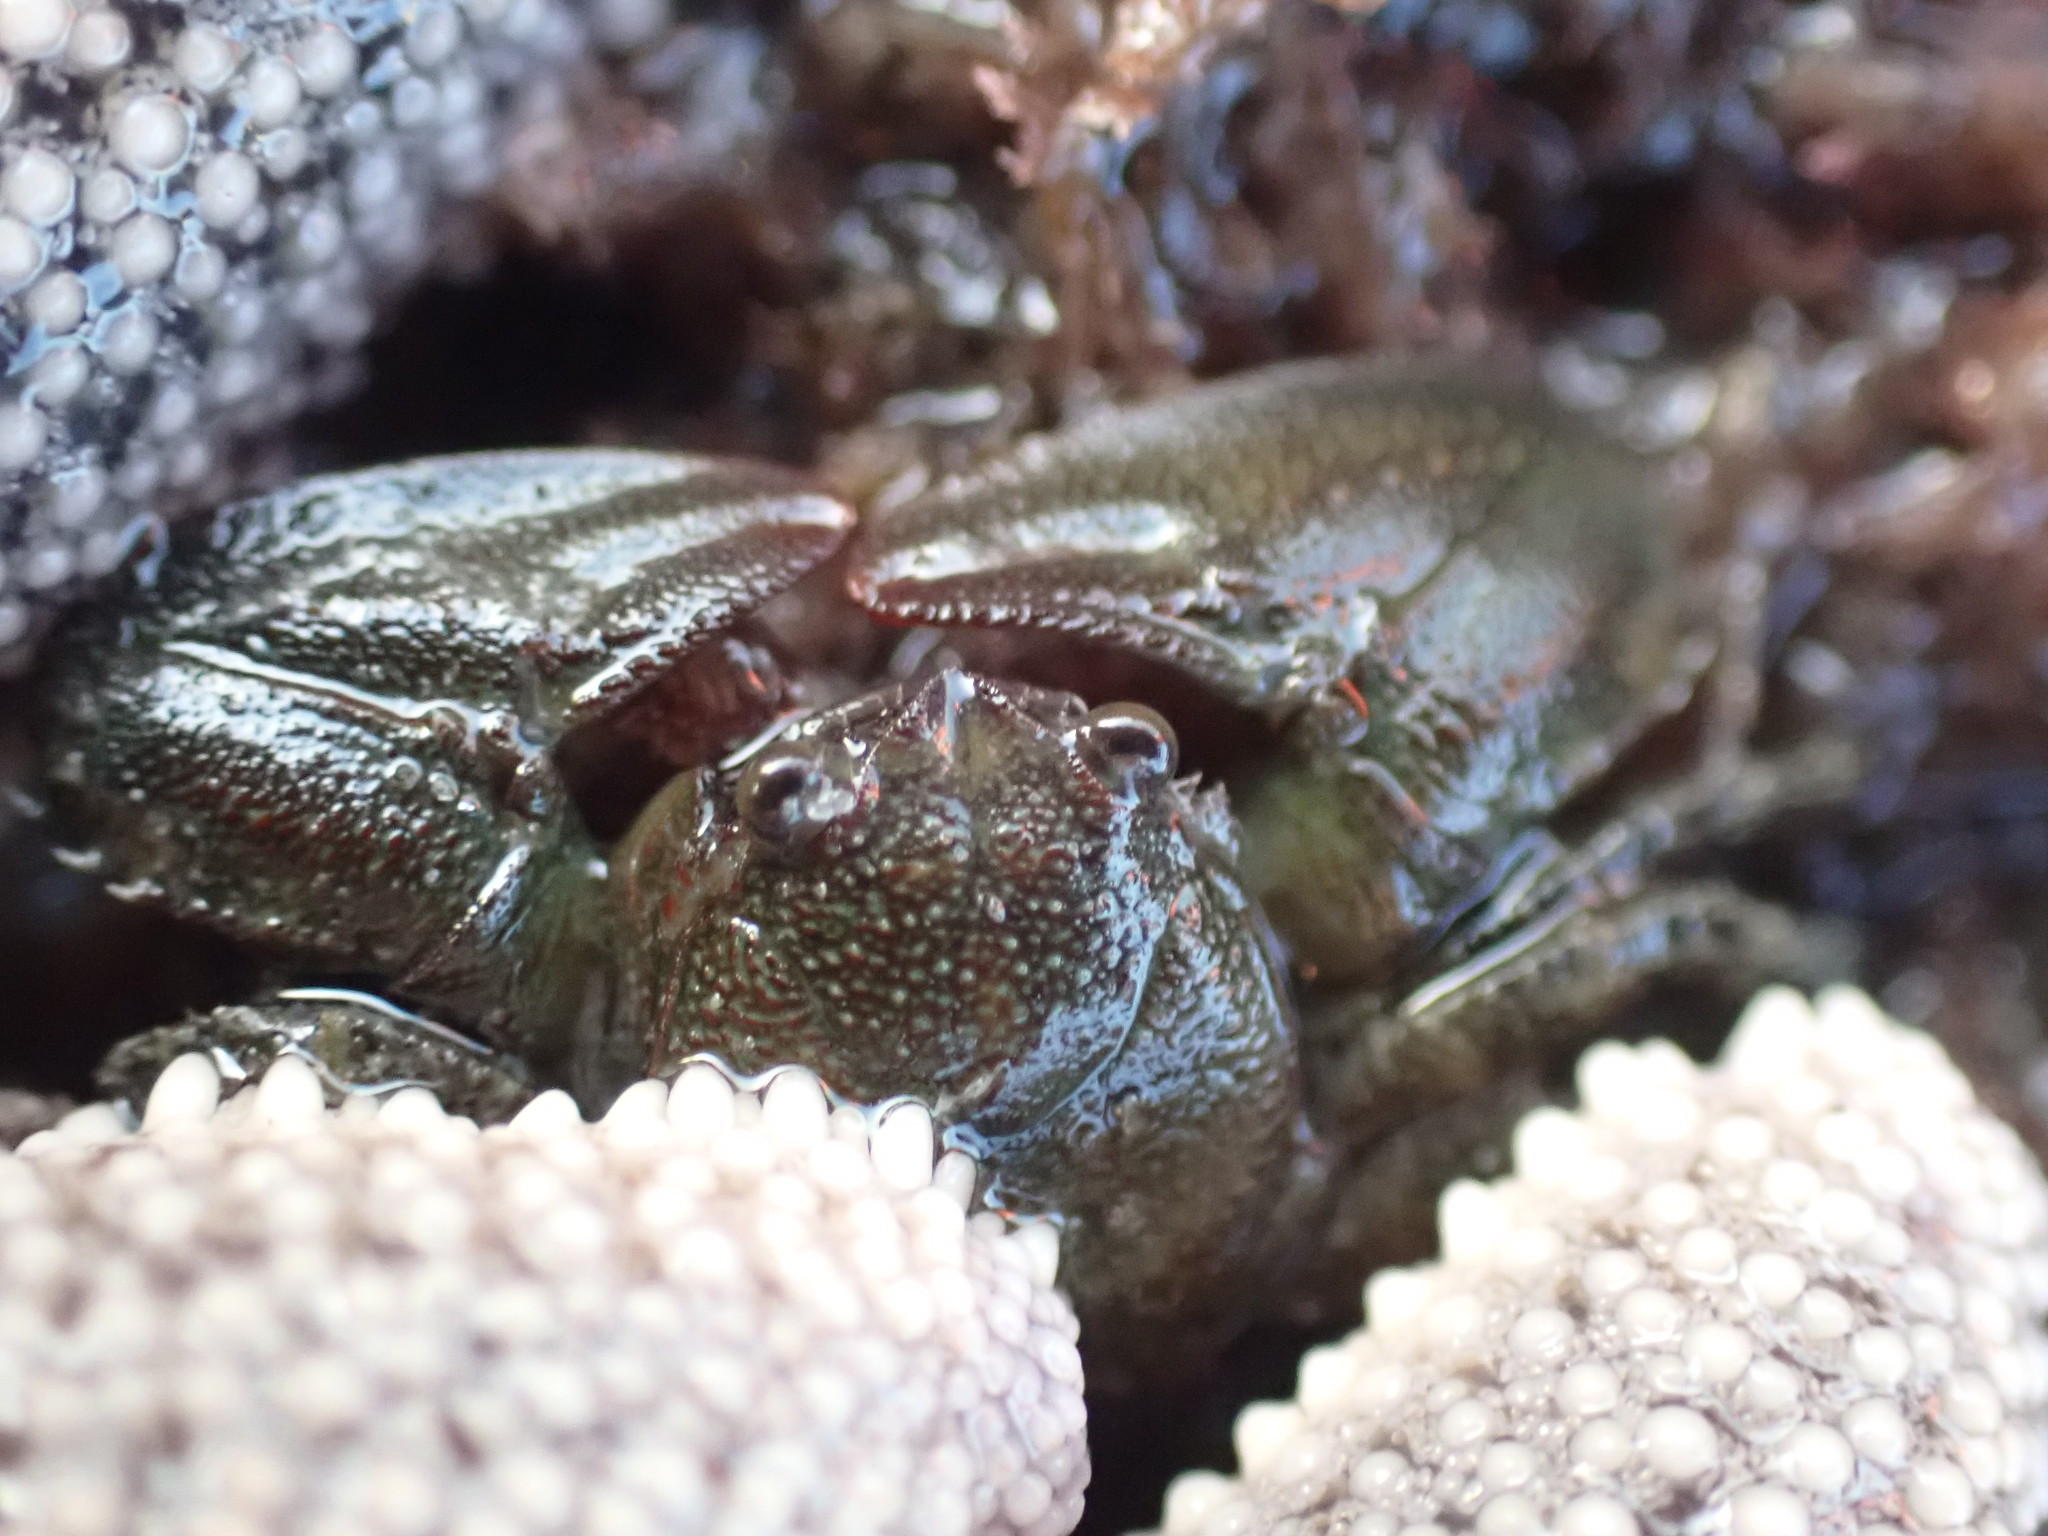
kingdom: Animalia
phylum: Arthropoda
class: Malacostraca
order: Decapoda
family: Porcellanidae
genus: Petrolisthes
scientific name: Petrolisthes elongatus
